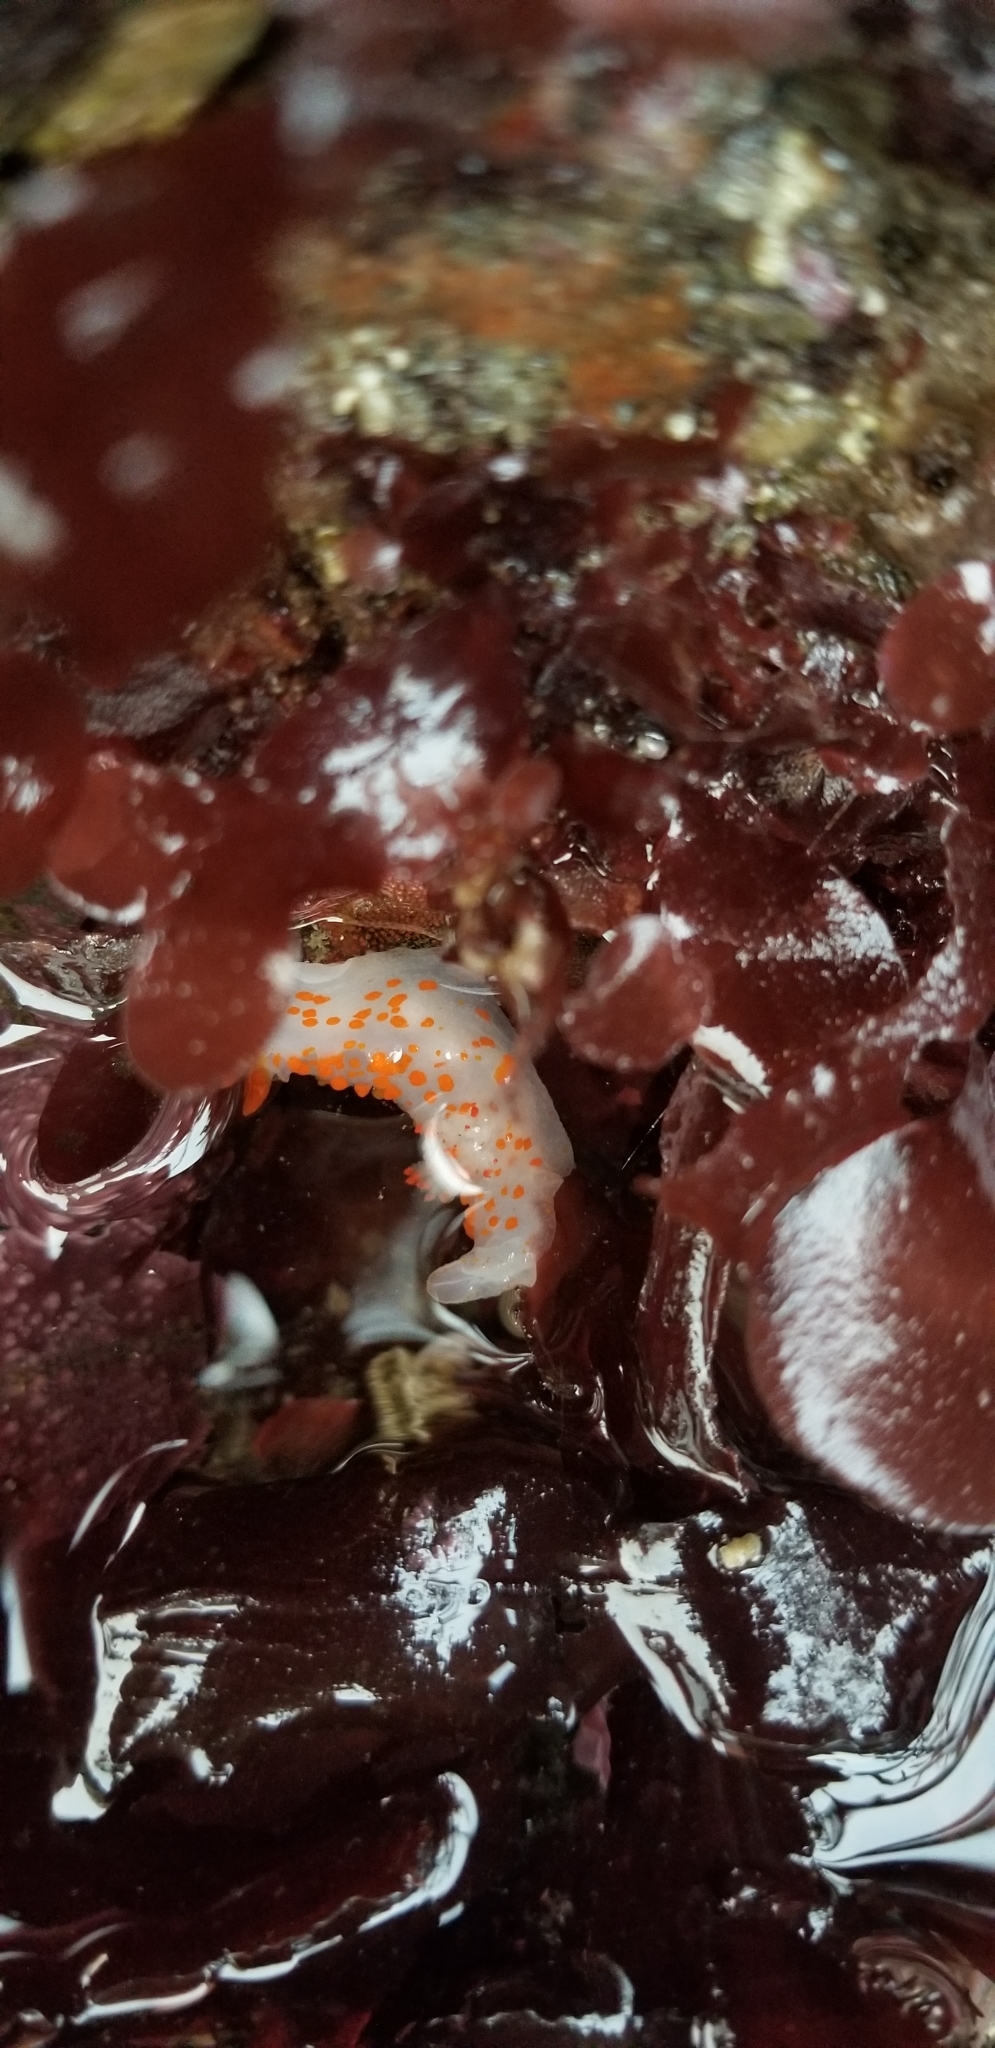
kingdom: Animalia
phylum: Mollusca
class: Gastropoda
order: Nudibranchia
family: Polyceridae
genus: Triopha
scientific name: Triopha catalinae
